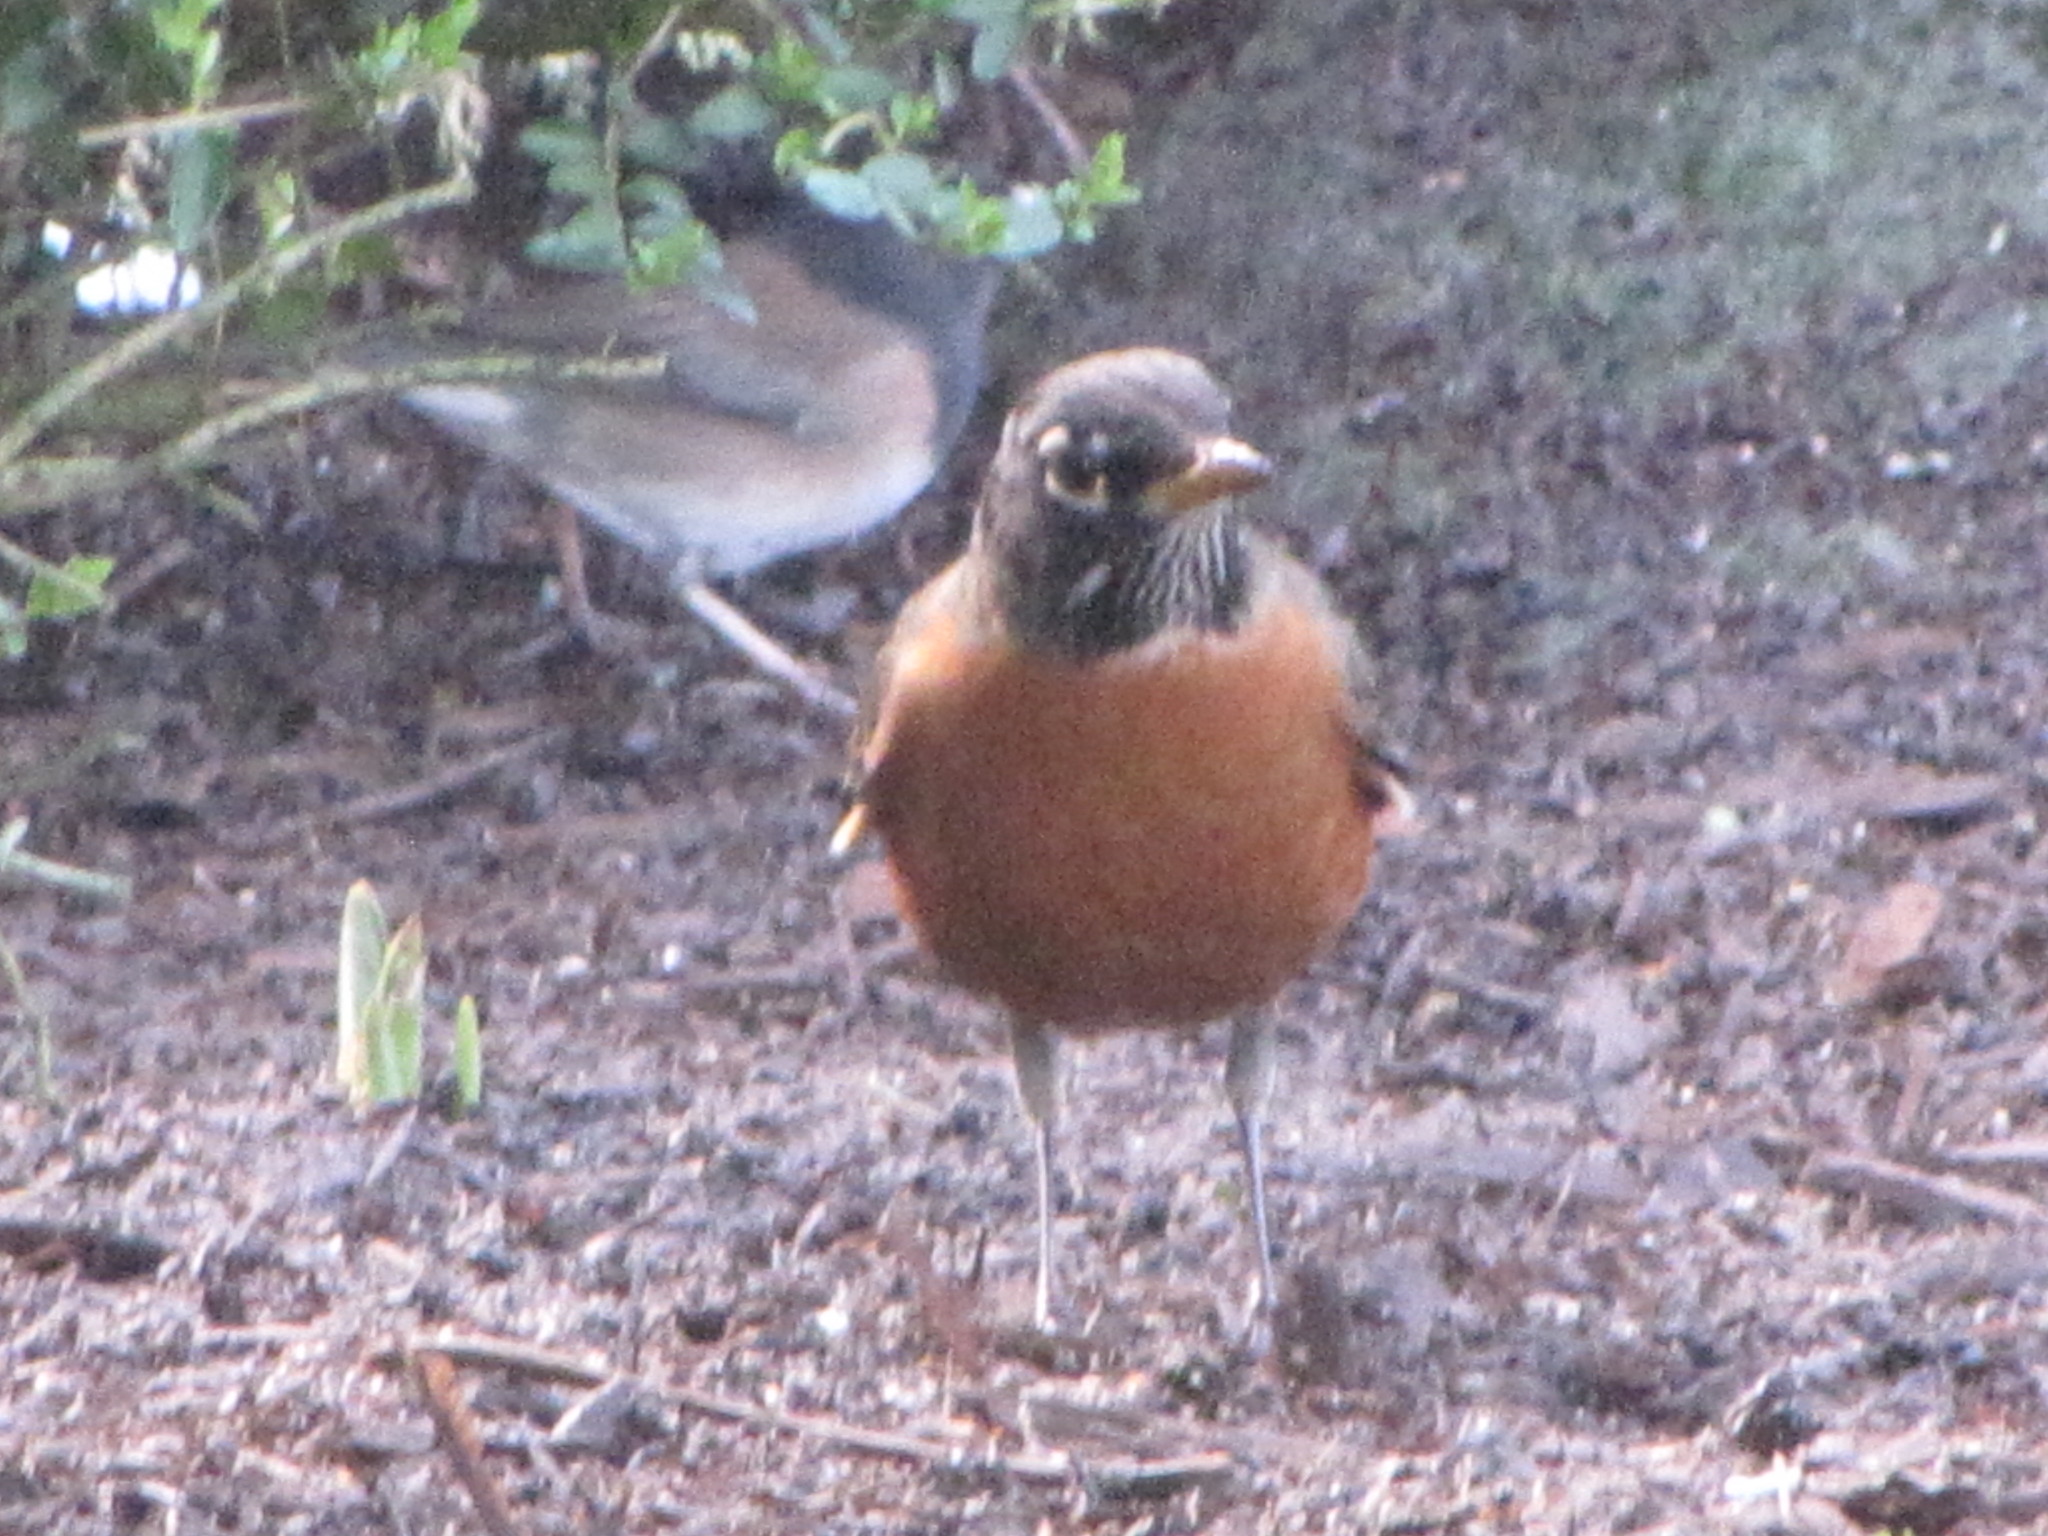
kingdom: Animalia
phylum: Chordata
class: Aves
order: Passeriformes
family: Turdidae
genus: Turdus
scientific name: Turdus migratorius
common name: American robin
